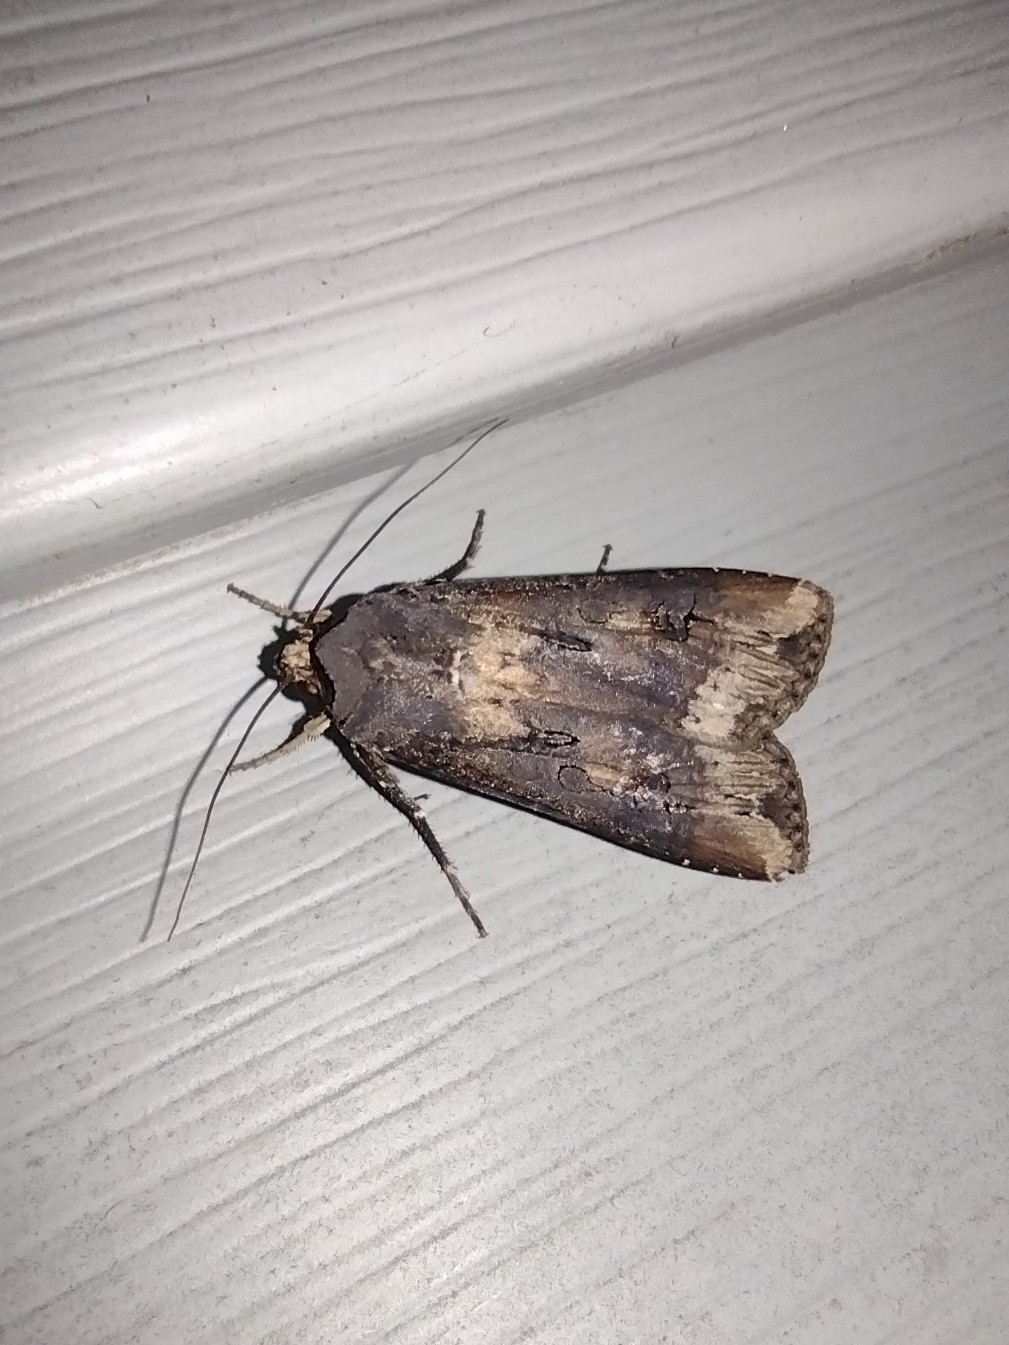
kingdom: Animalia
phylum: Arthropoda
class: Insecta
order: Lepidoptera
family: Noctuidae
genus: Agrotis
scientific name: Agrotis ipsilon
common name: Dark sword-grass
